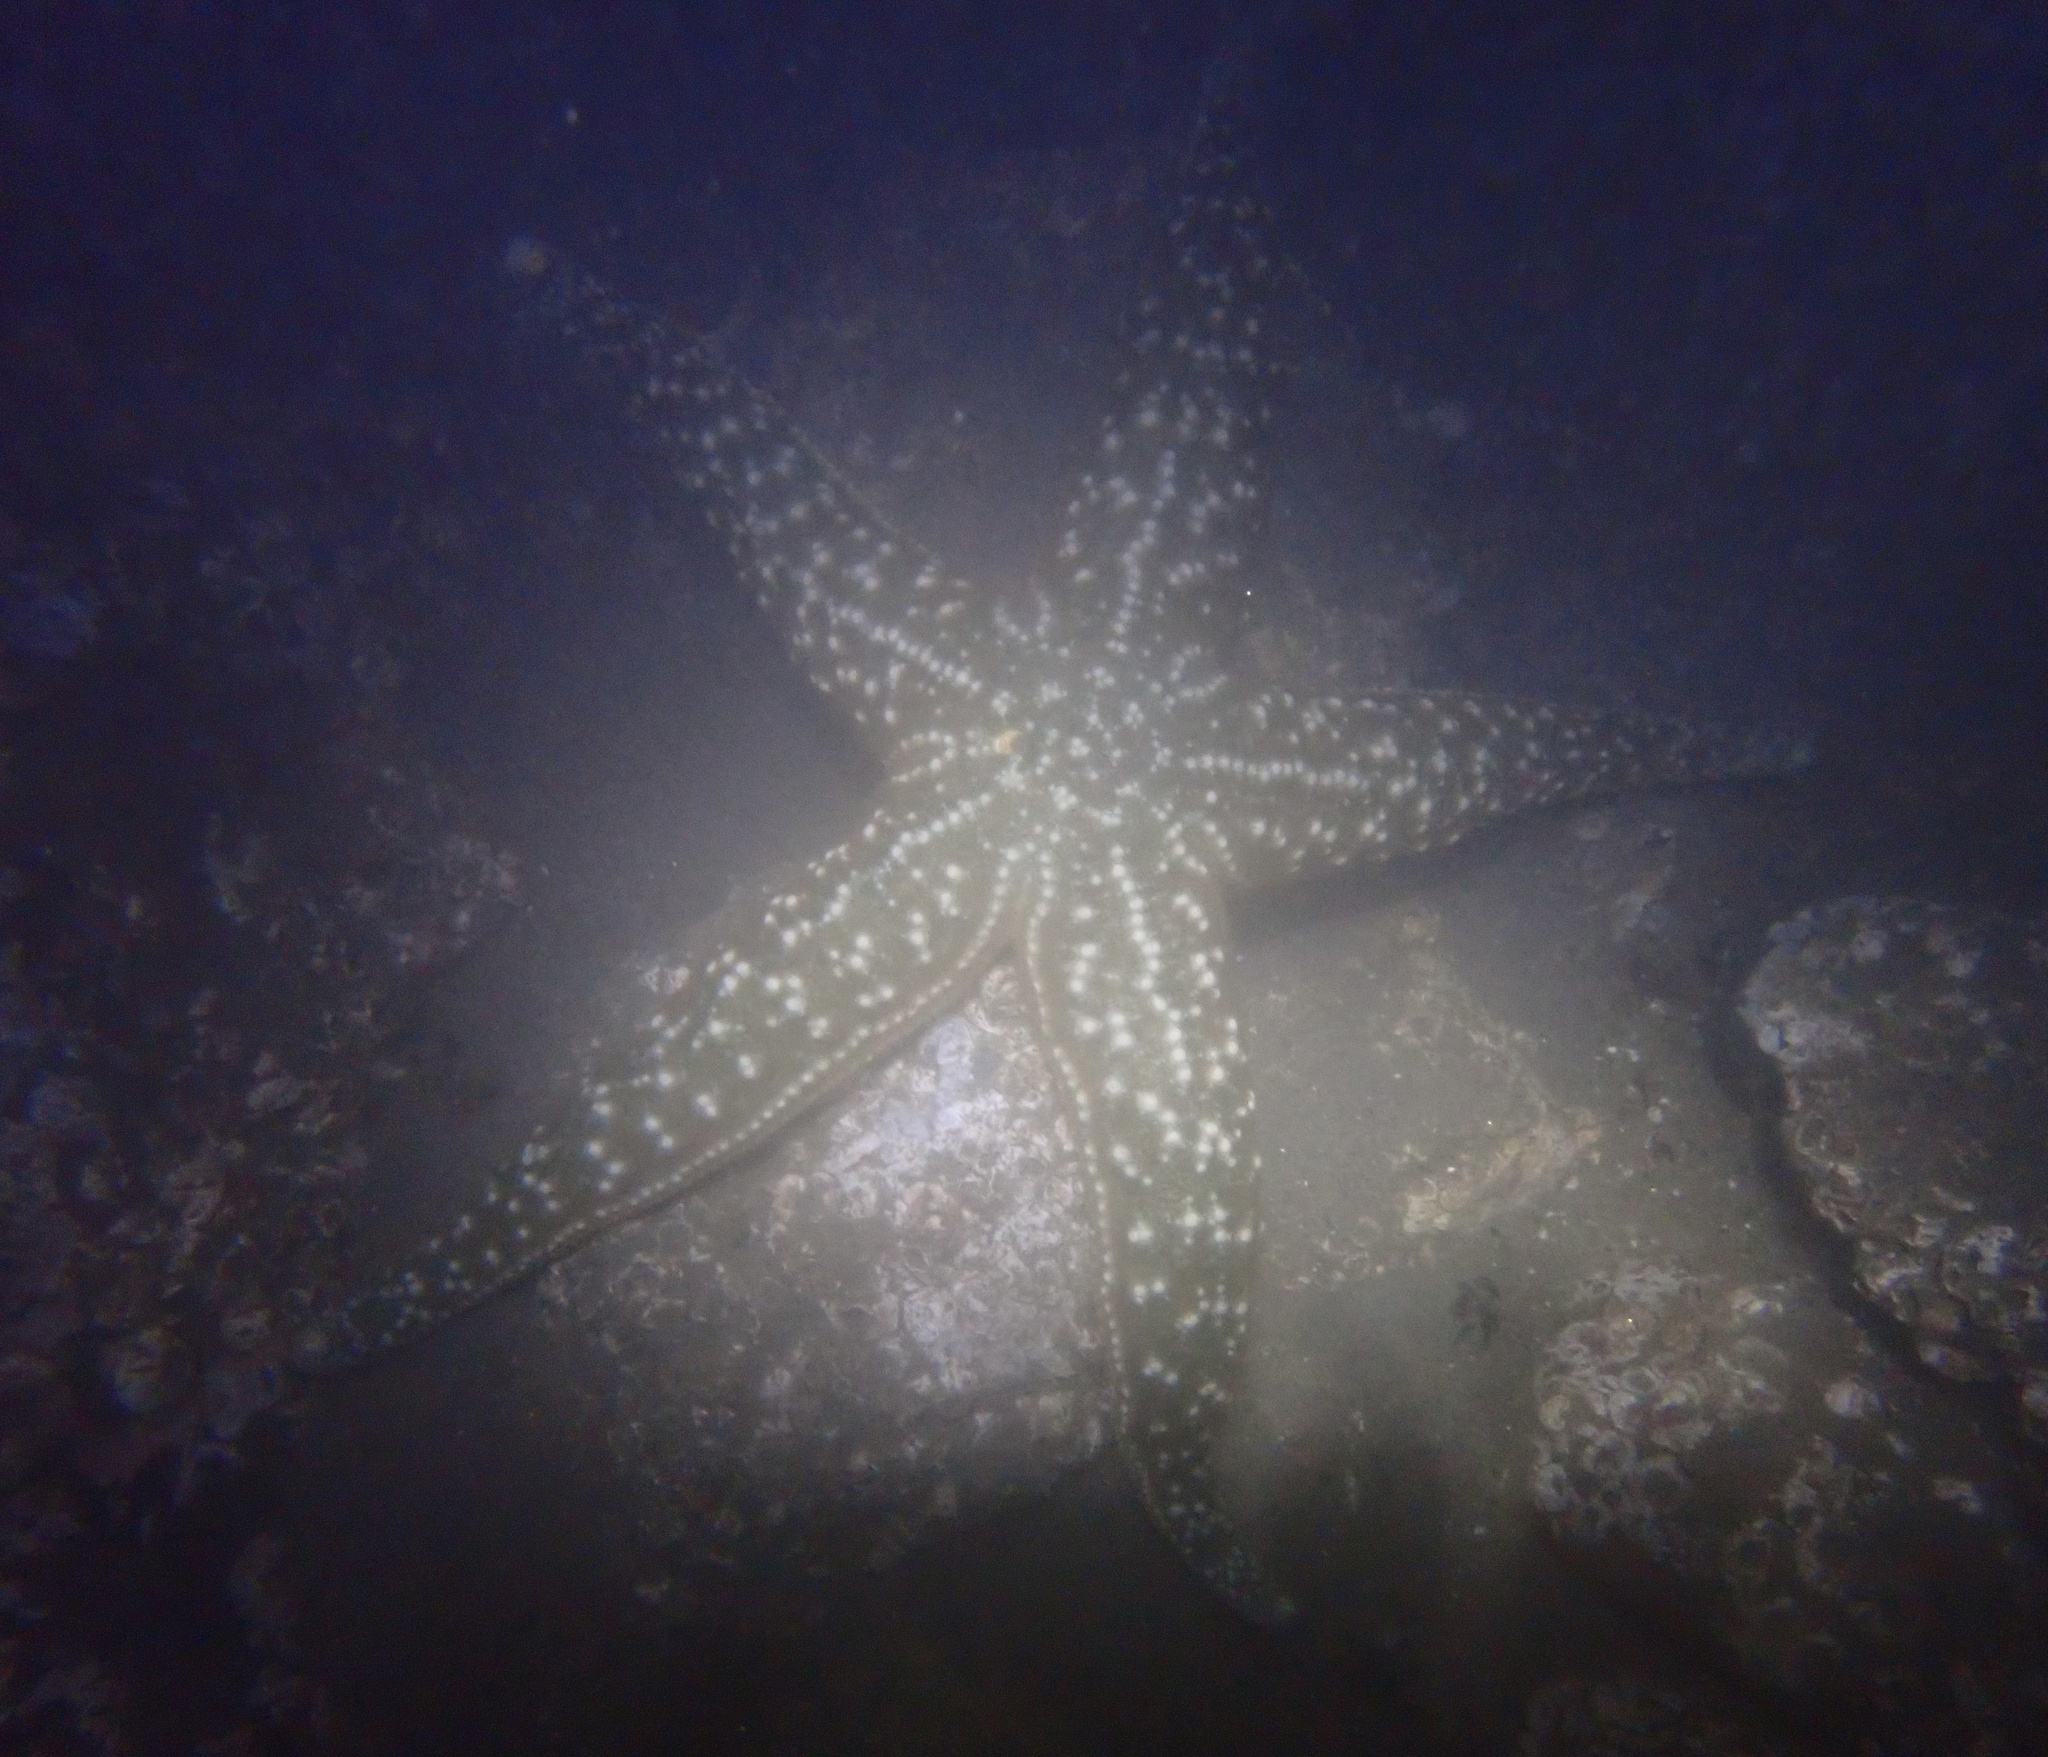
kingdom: Animalia
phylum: Echinodermata
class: Asteroidea
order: Forcipulatida
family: Asteriidae
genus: Evasterias
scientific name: Evasterias troschelii
